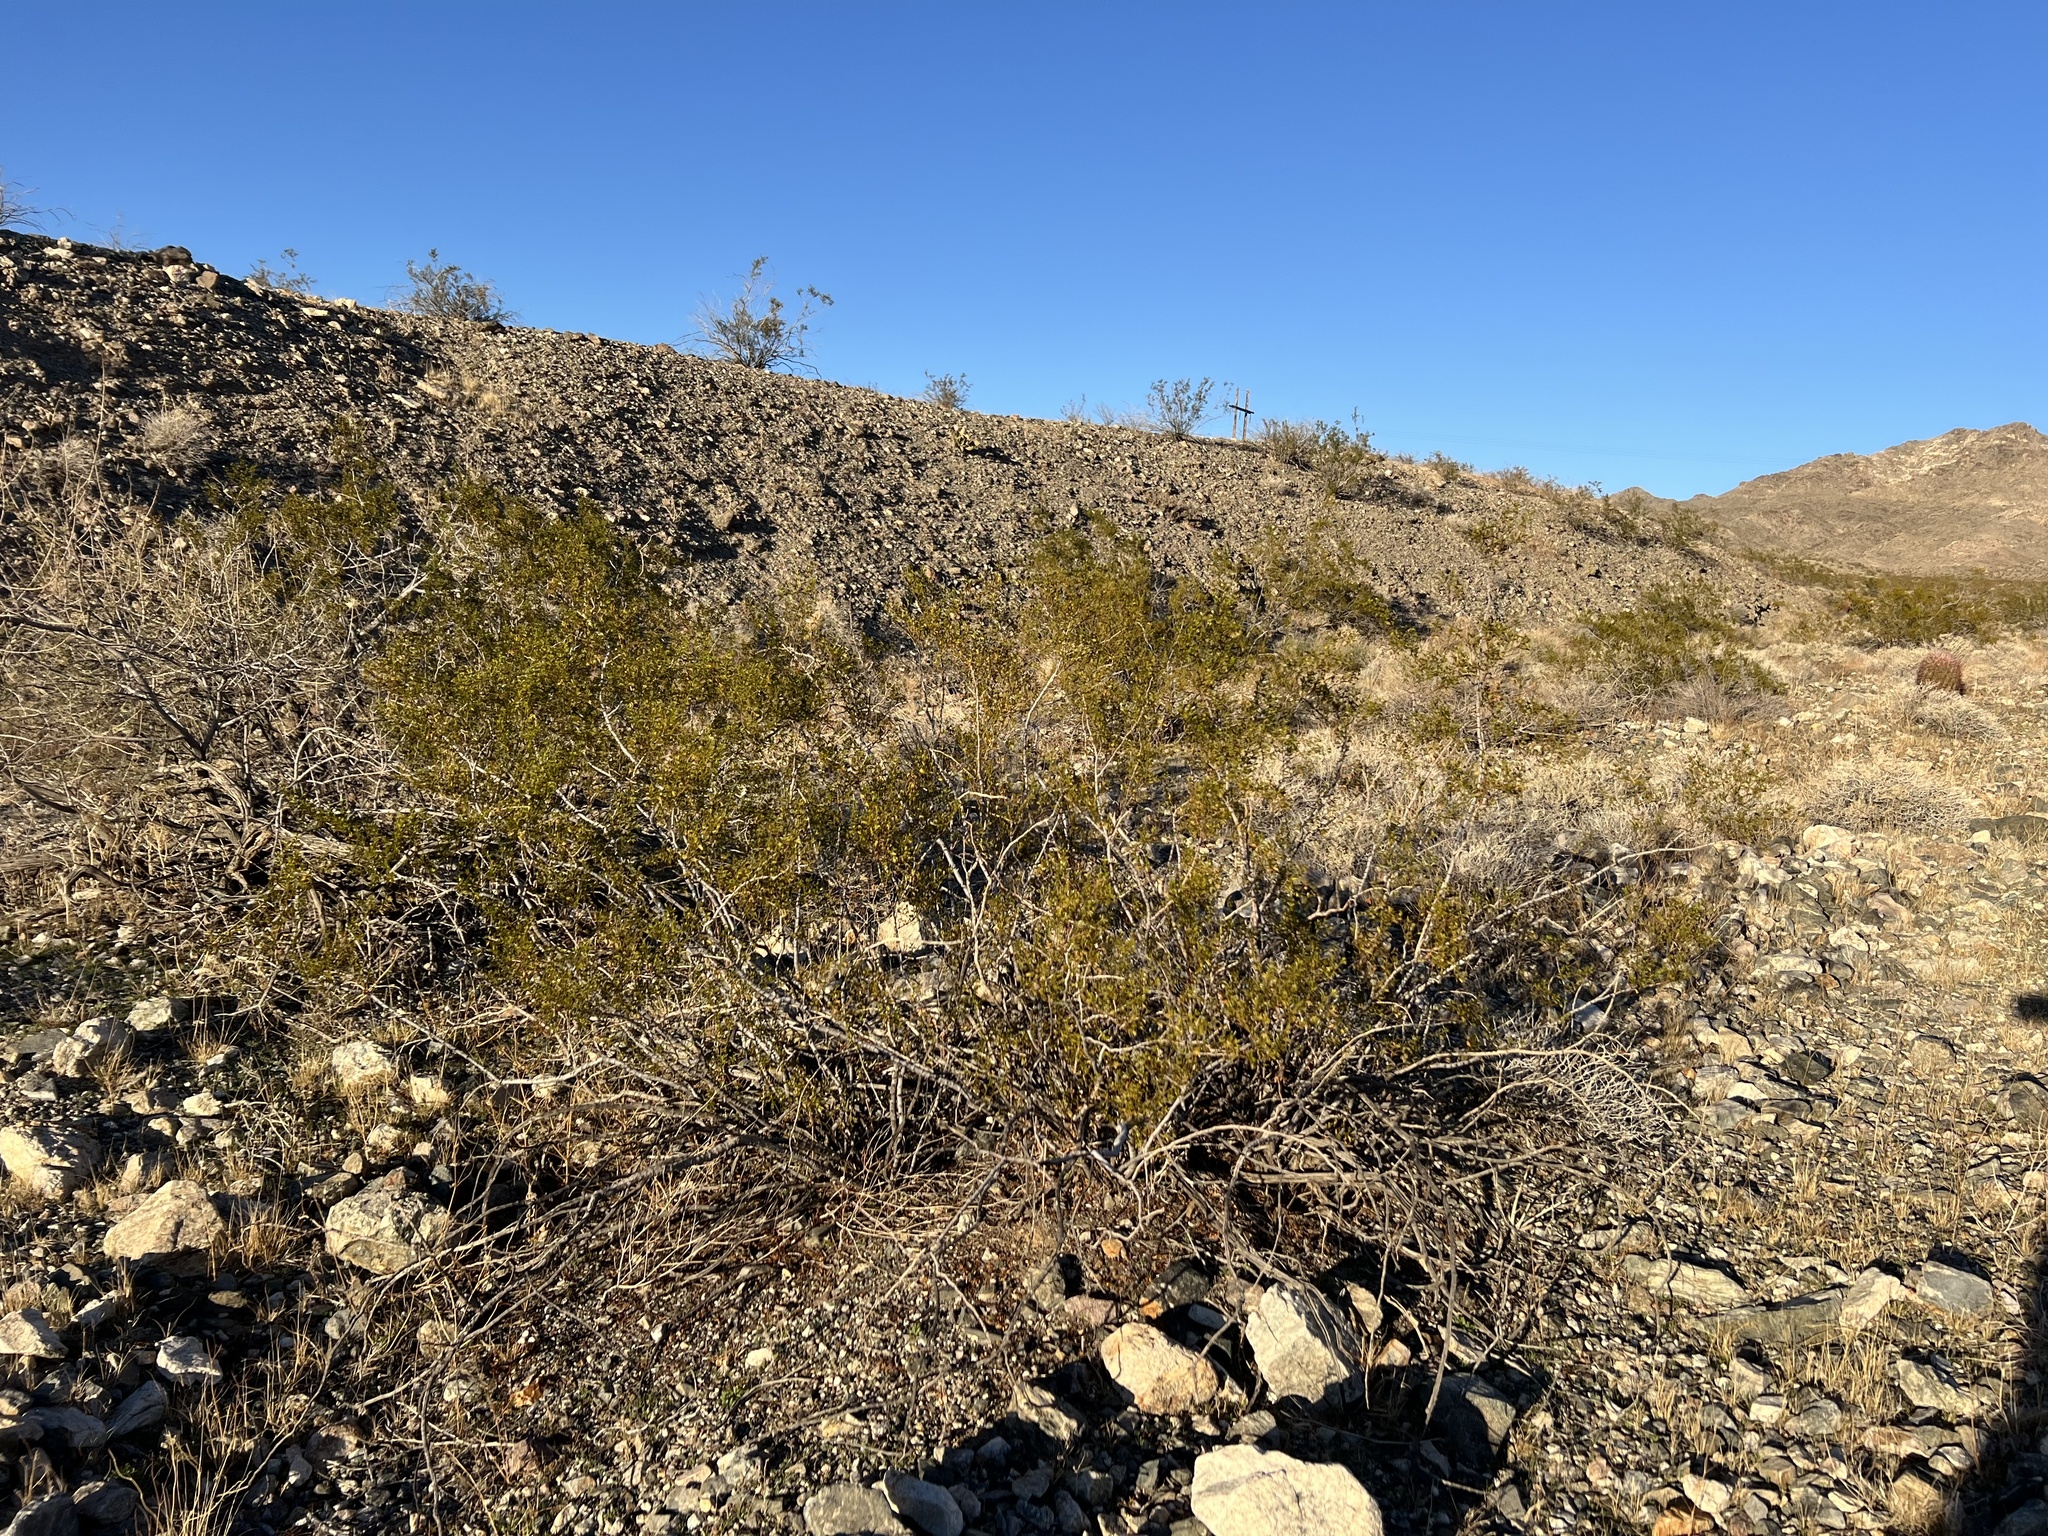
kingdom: Plantae
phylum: Tracheophyta
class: Magnoliopsida
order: Zygophyllales
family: Zygophyllaceae
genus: Larrea
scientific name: Larrea tridentata
